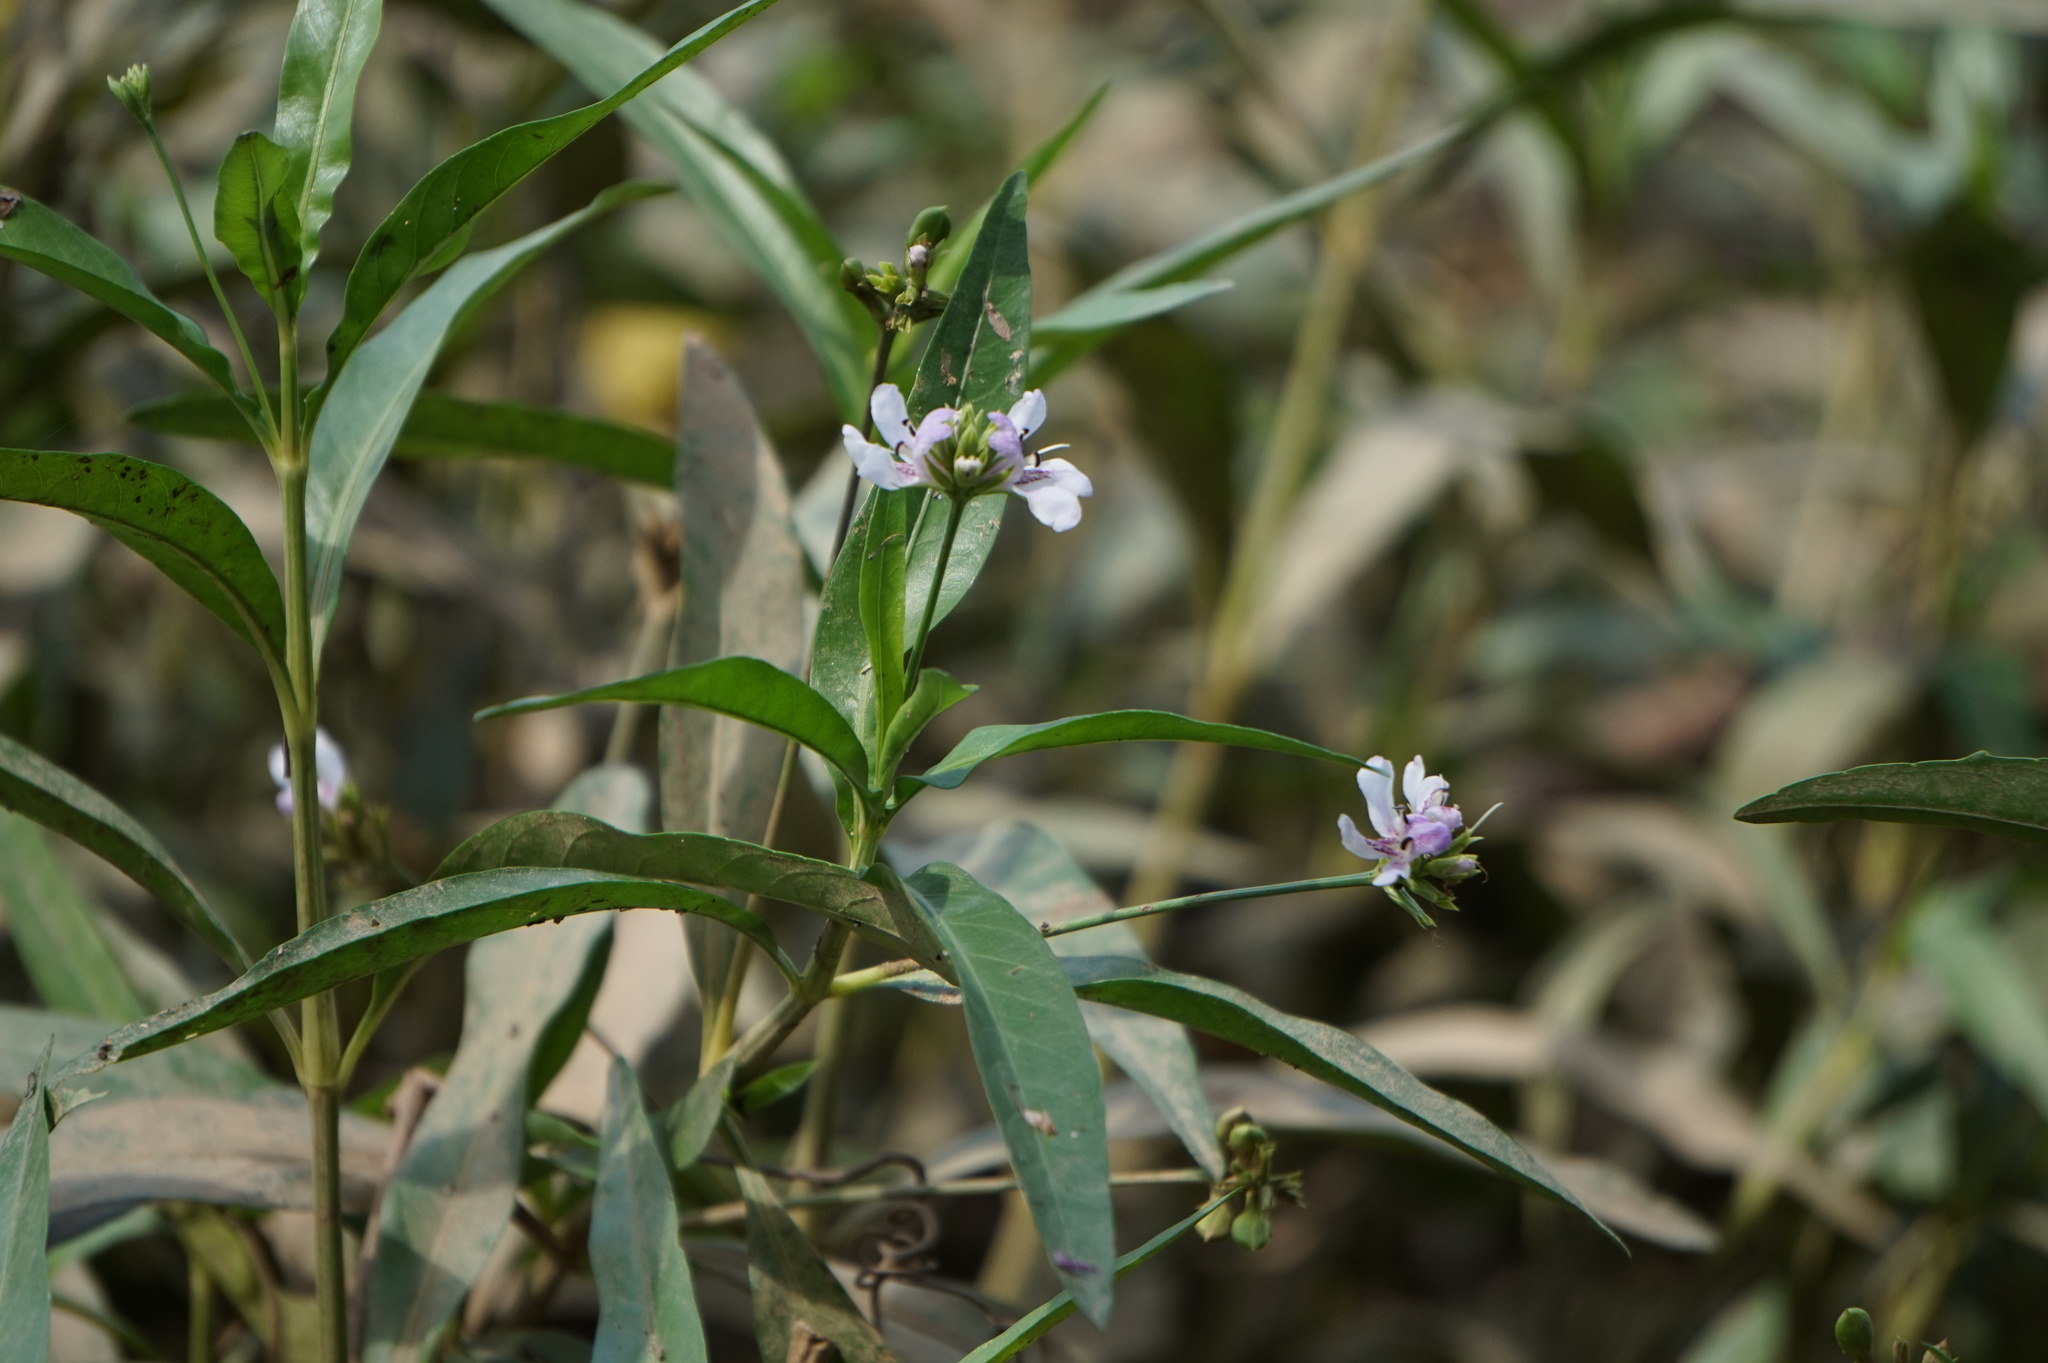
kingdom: Plantae
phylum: Tracheophyta
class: Magnoliopsida
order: Lamiales
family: Acanthaceae
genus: Dianthera
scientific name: Dianthera americana
